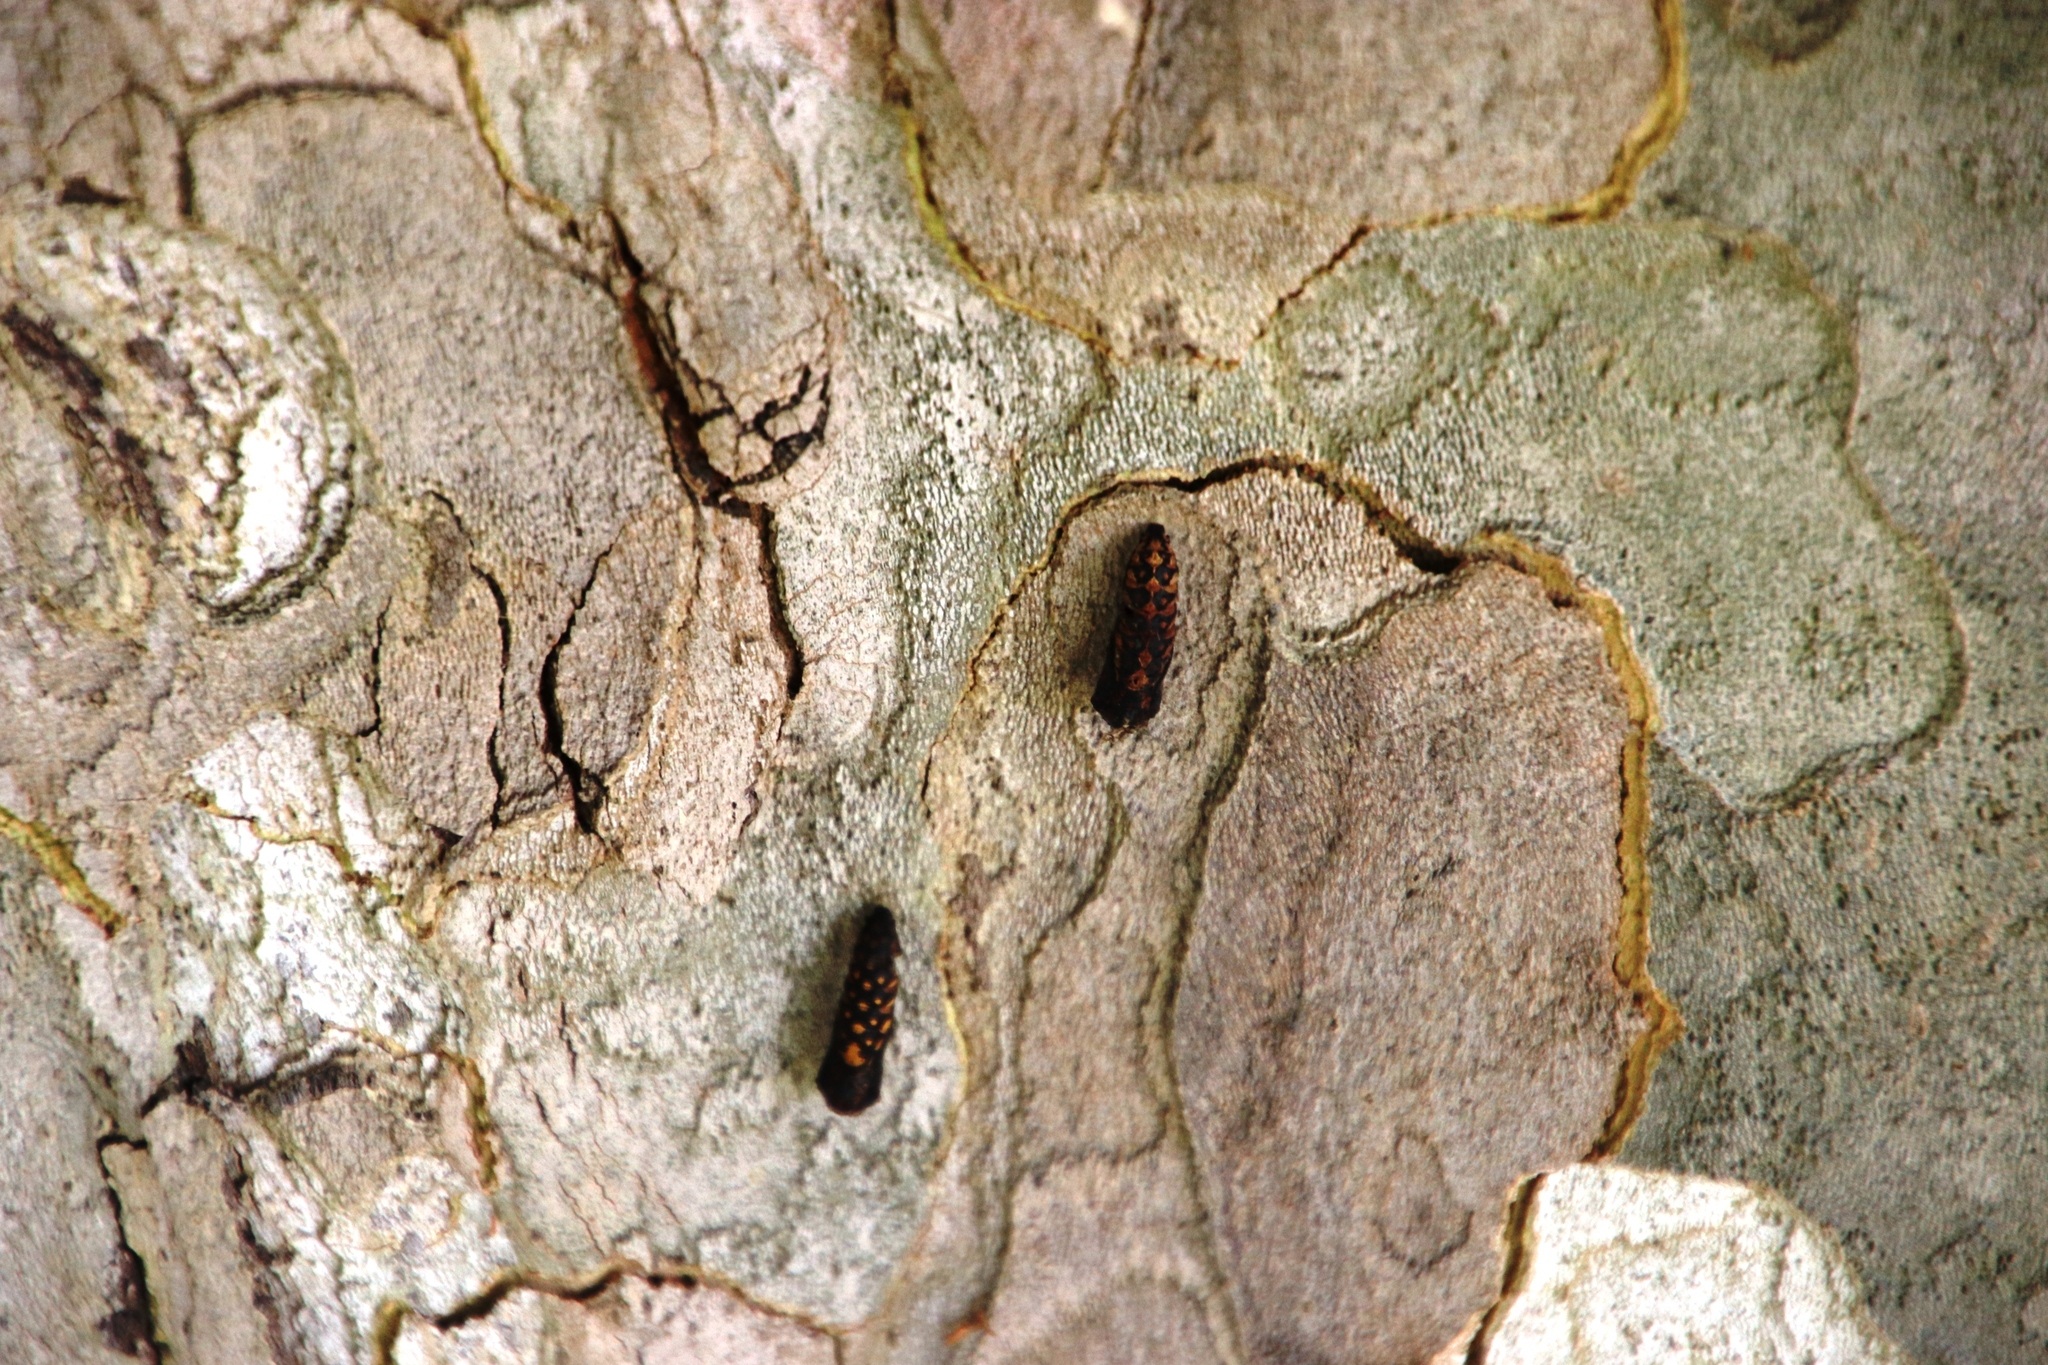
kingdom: Animalia
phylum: Arthropoda
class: Insecta
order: Lepidoptera
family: Nymphalidae
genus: Acraea
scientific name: Acraea horta
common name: Garden acraea
